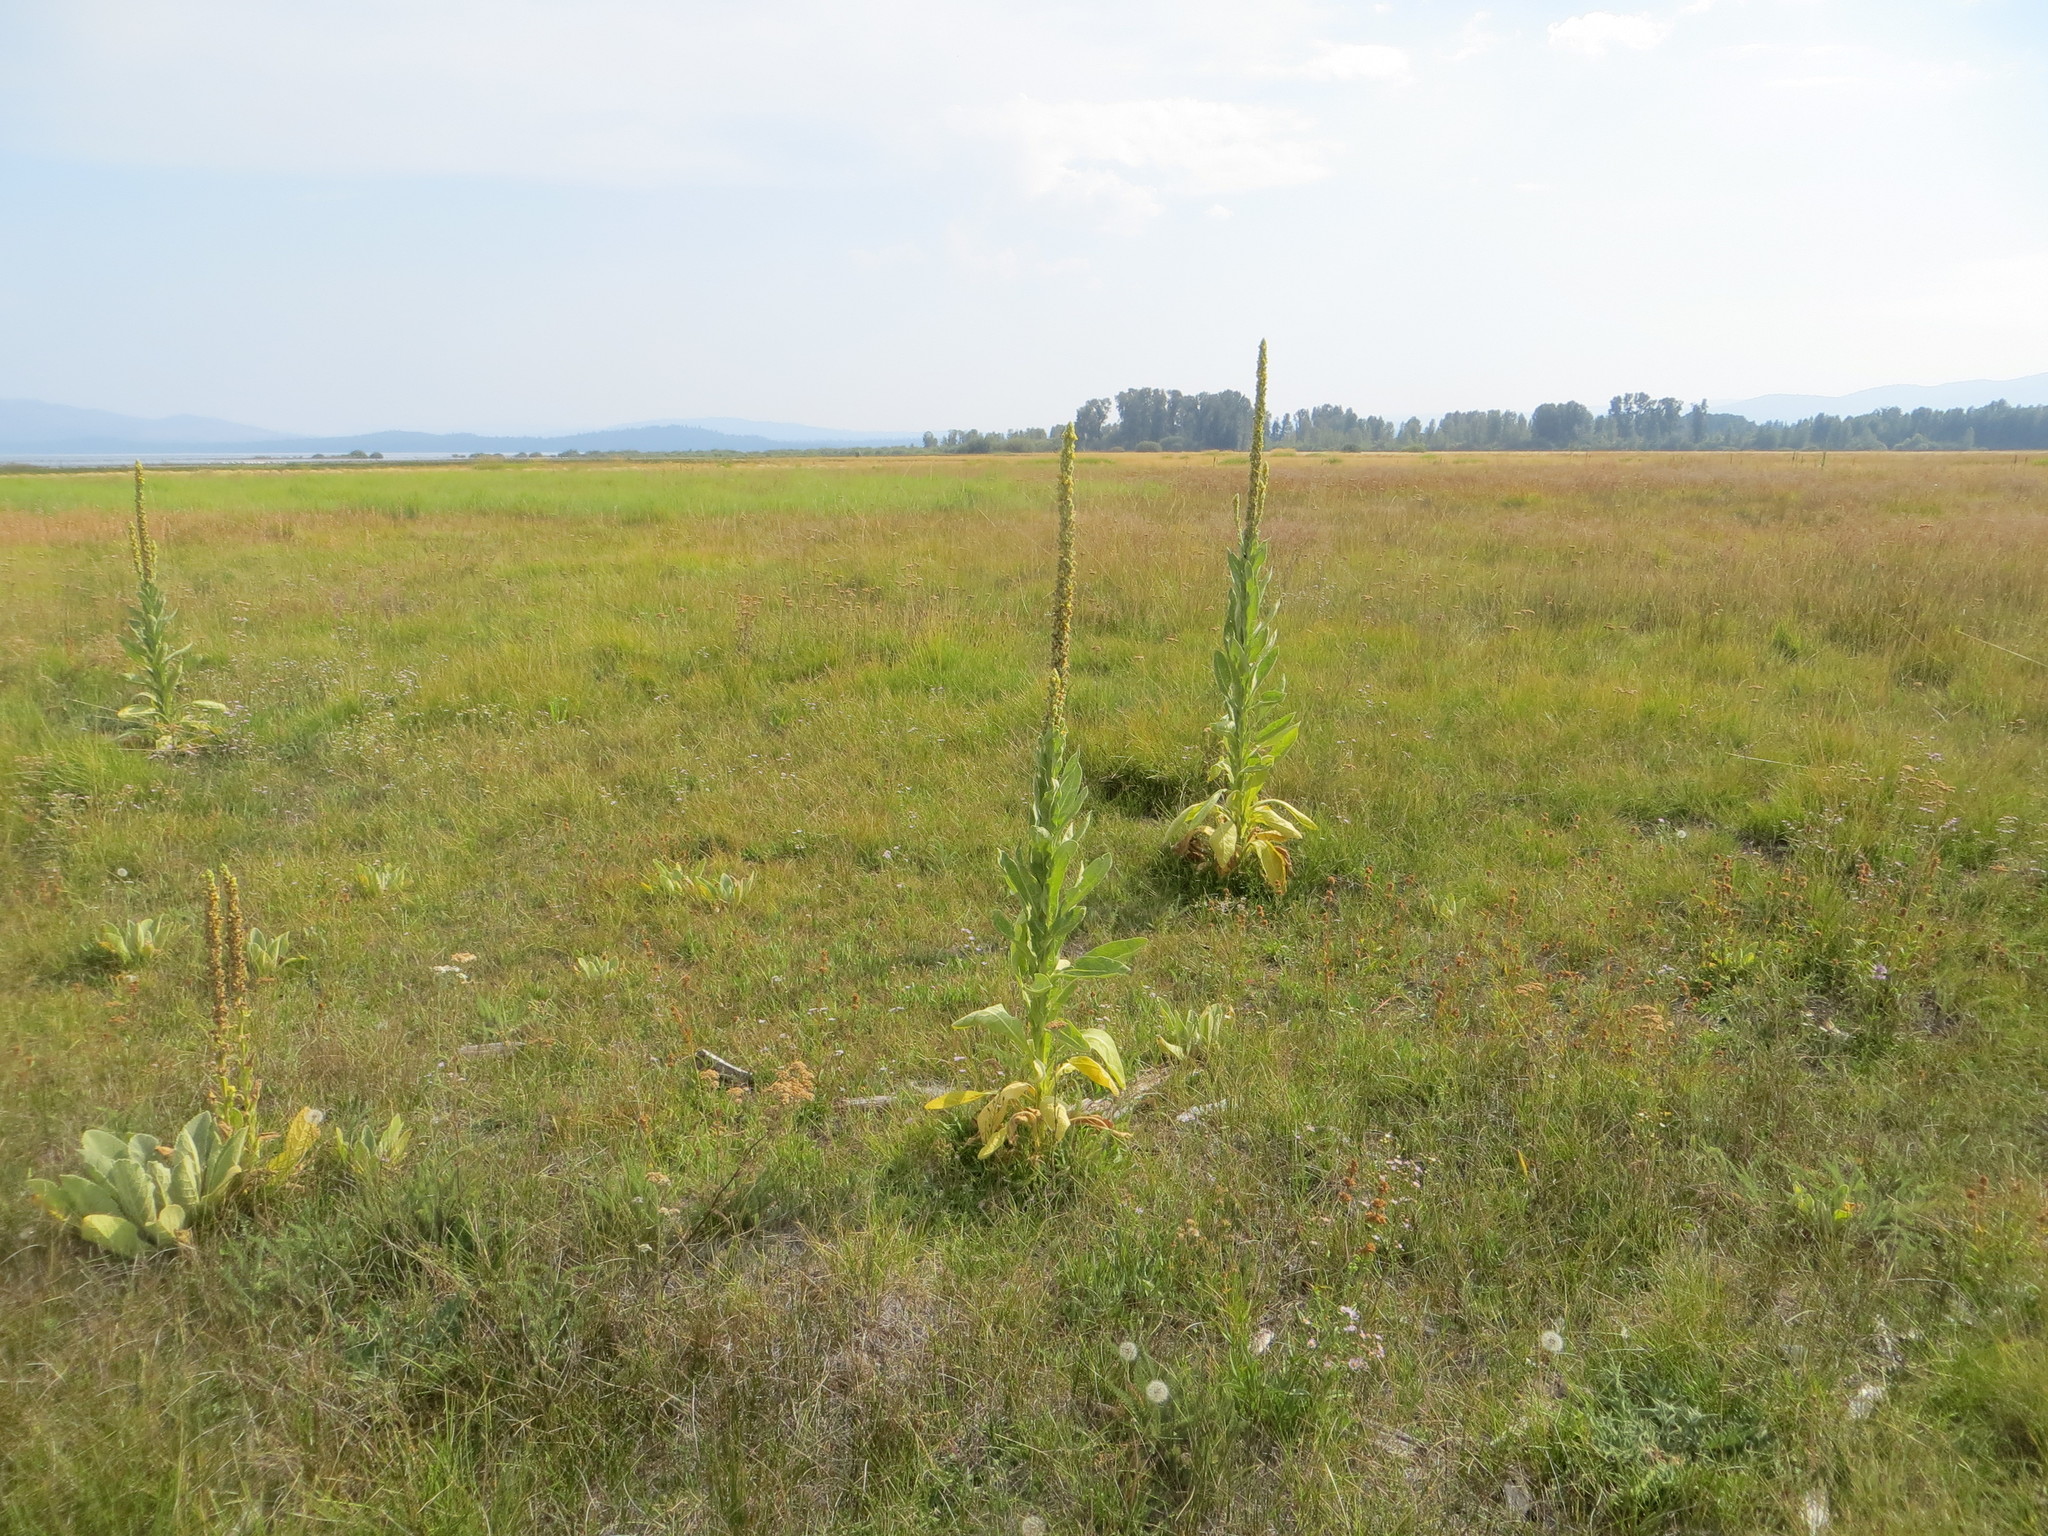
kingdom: Plantae
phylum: Tracheophyta
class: Magnoliopsida
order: Lamiales
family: Scrophulariaceae
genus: Verbascum
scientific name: Verbascum thapsus
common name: Common mullein
